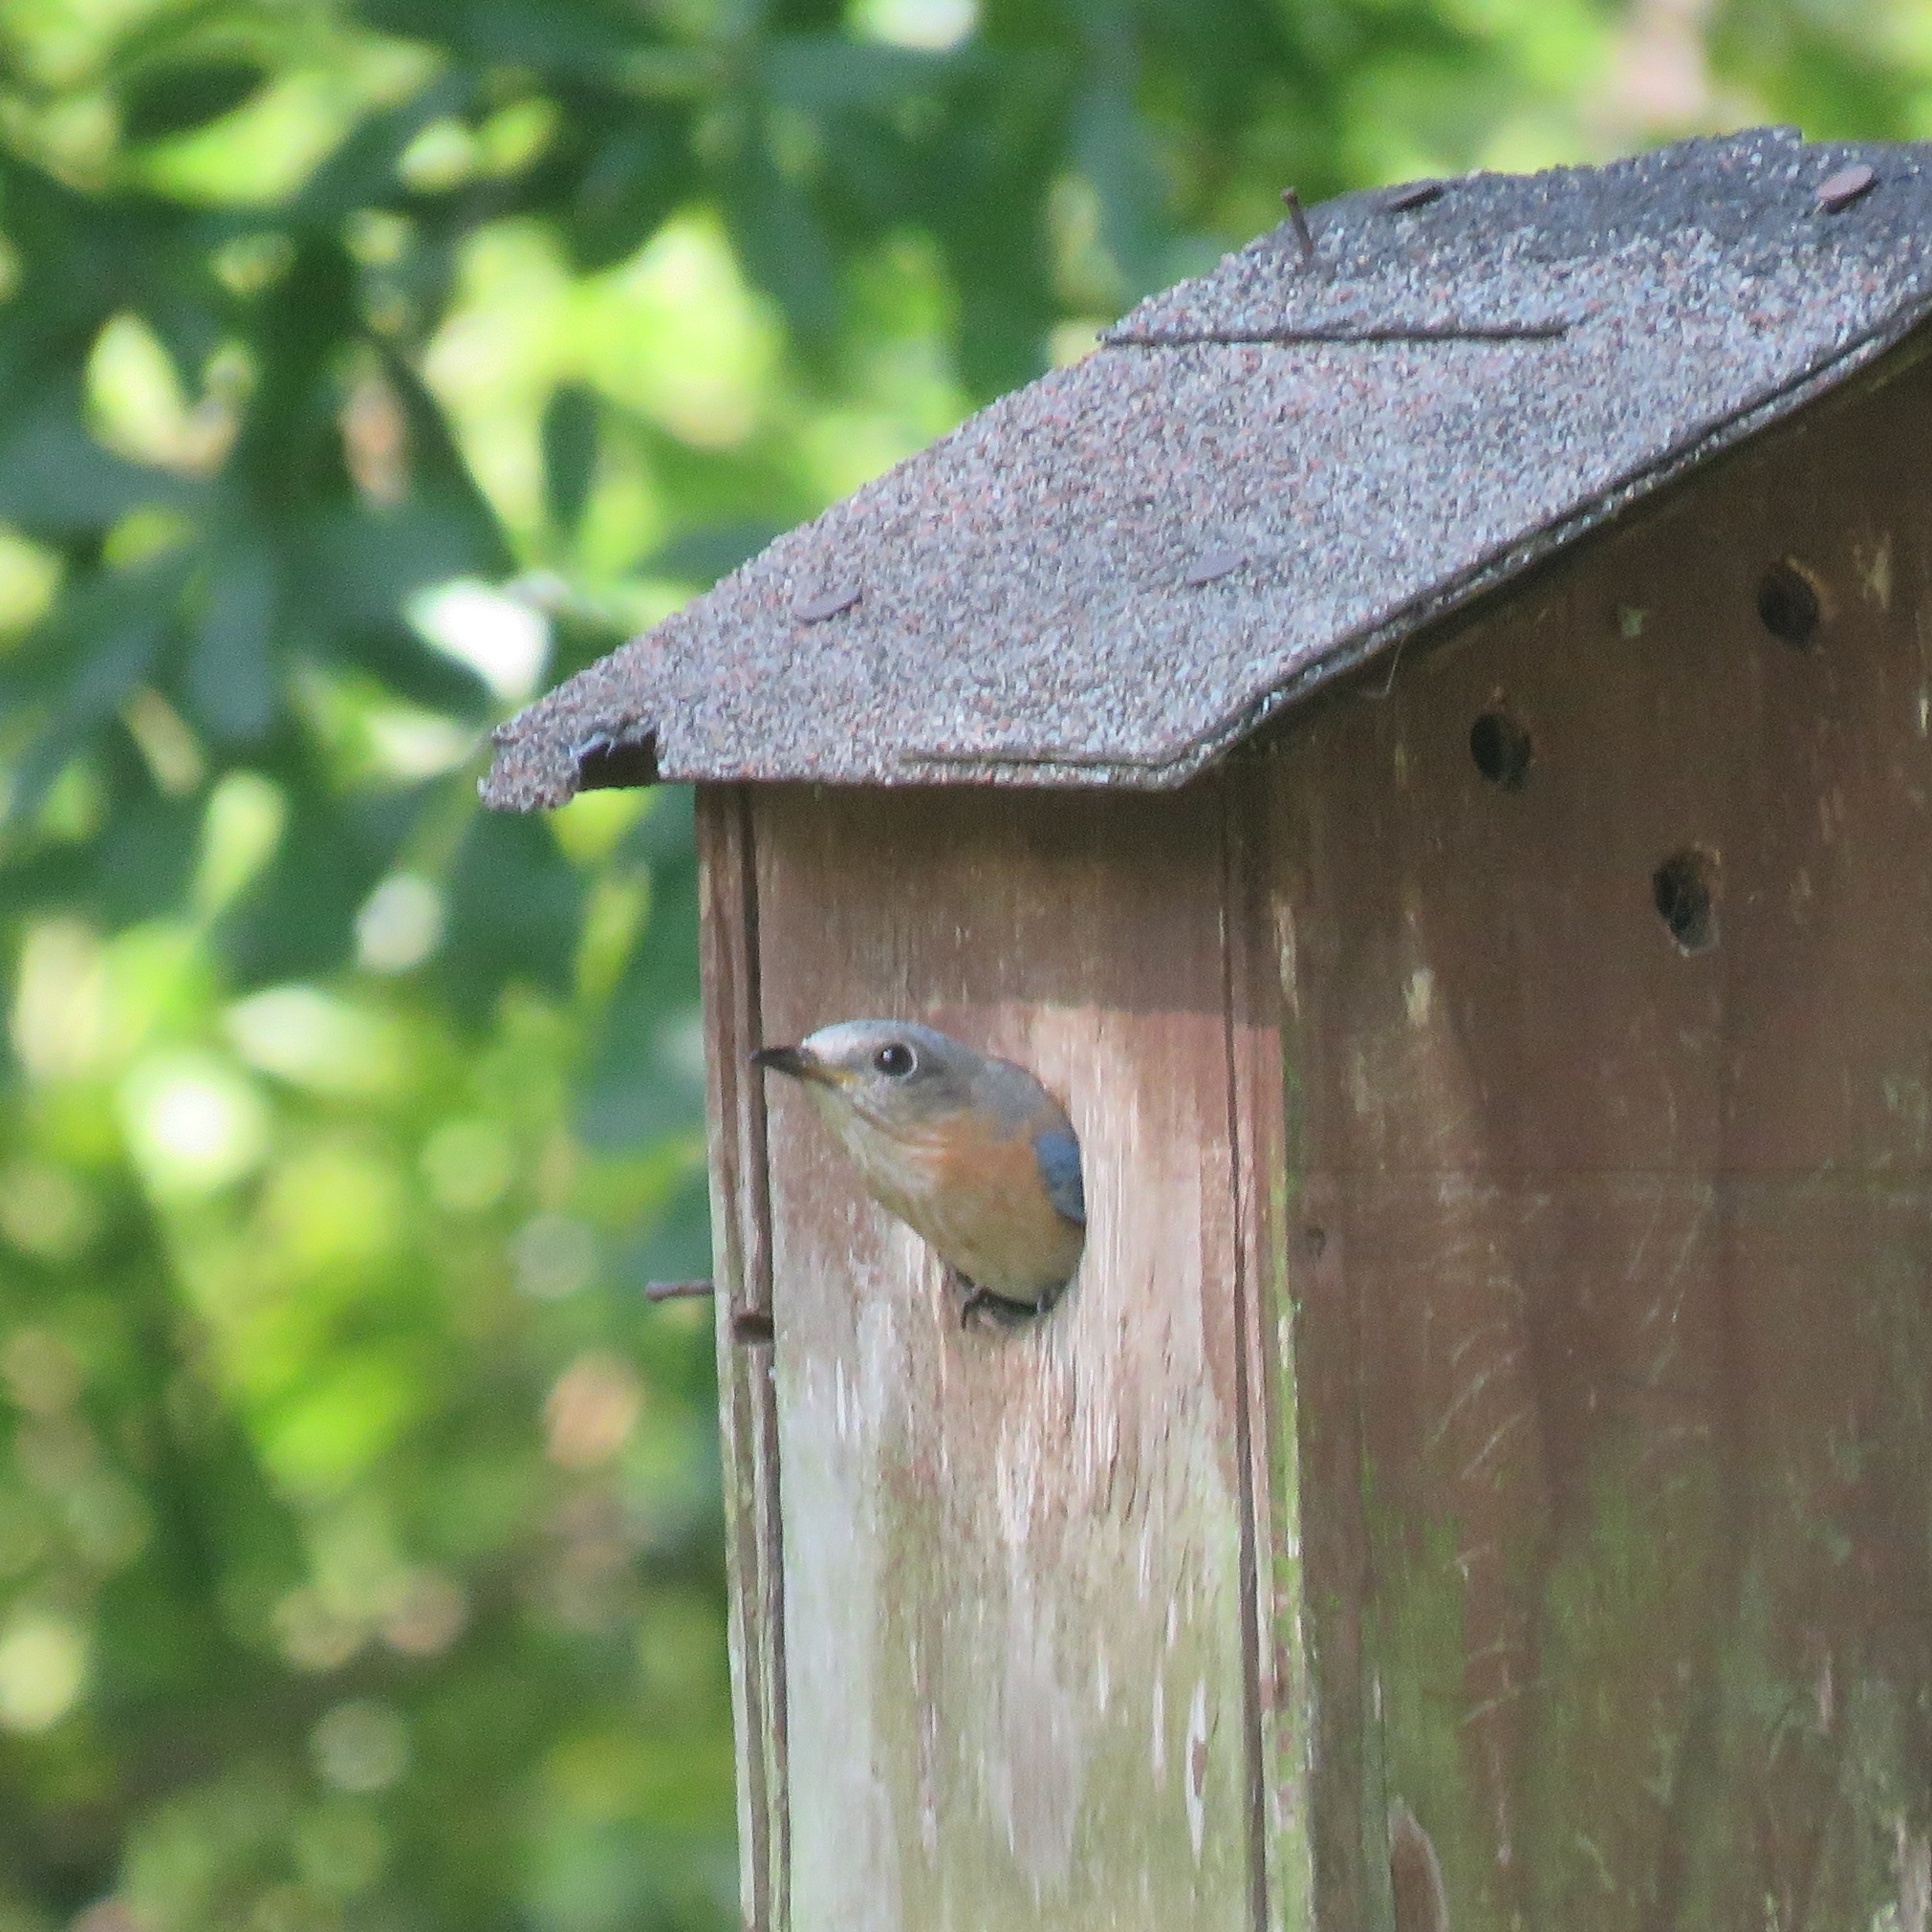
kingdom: Animalia
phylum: Chordata
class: Aves
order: Passeriformes
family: Turdidae
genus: Sialia
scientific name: Sialia sialis
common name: Eastern bluebird
